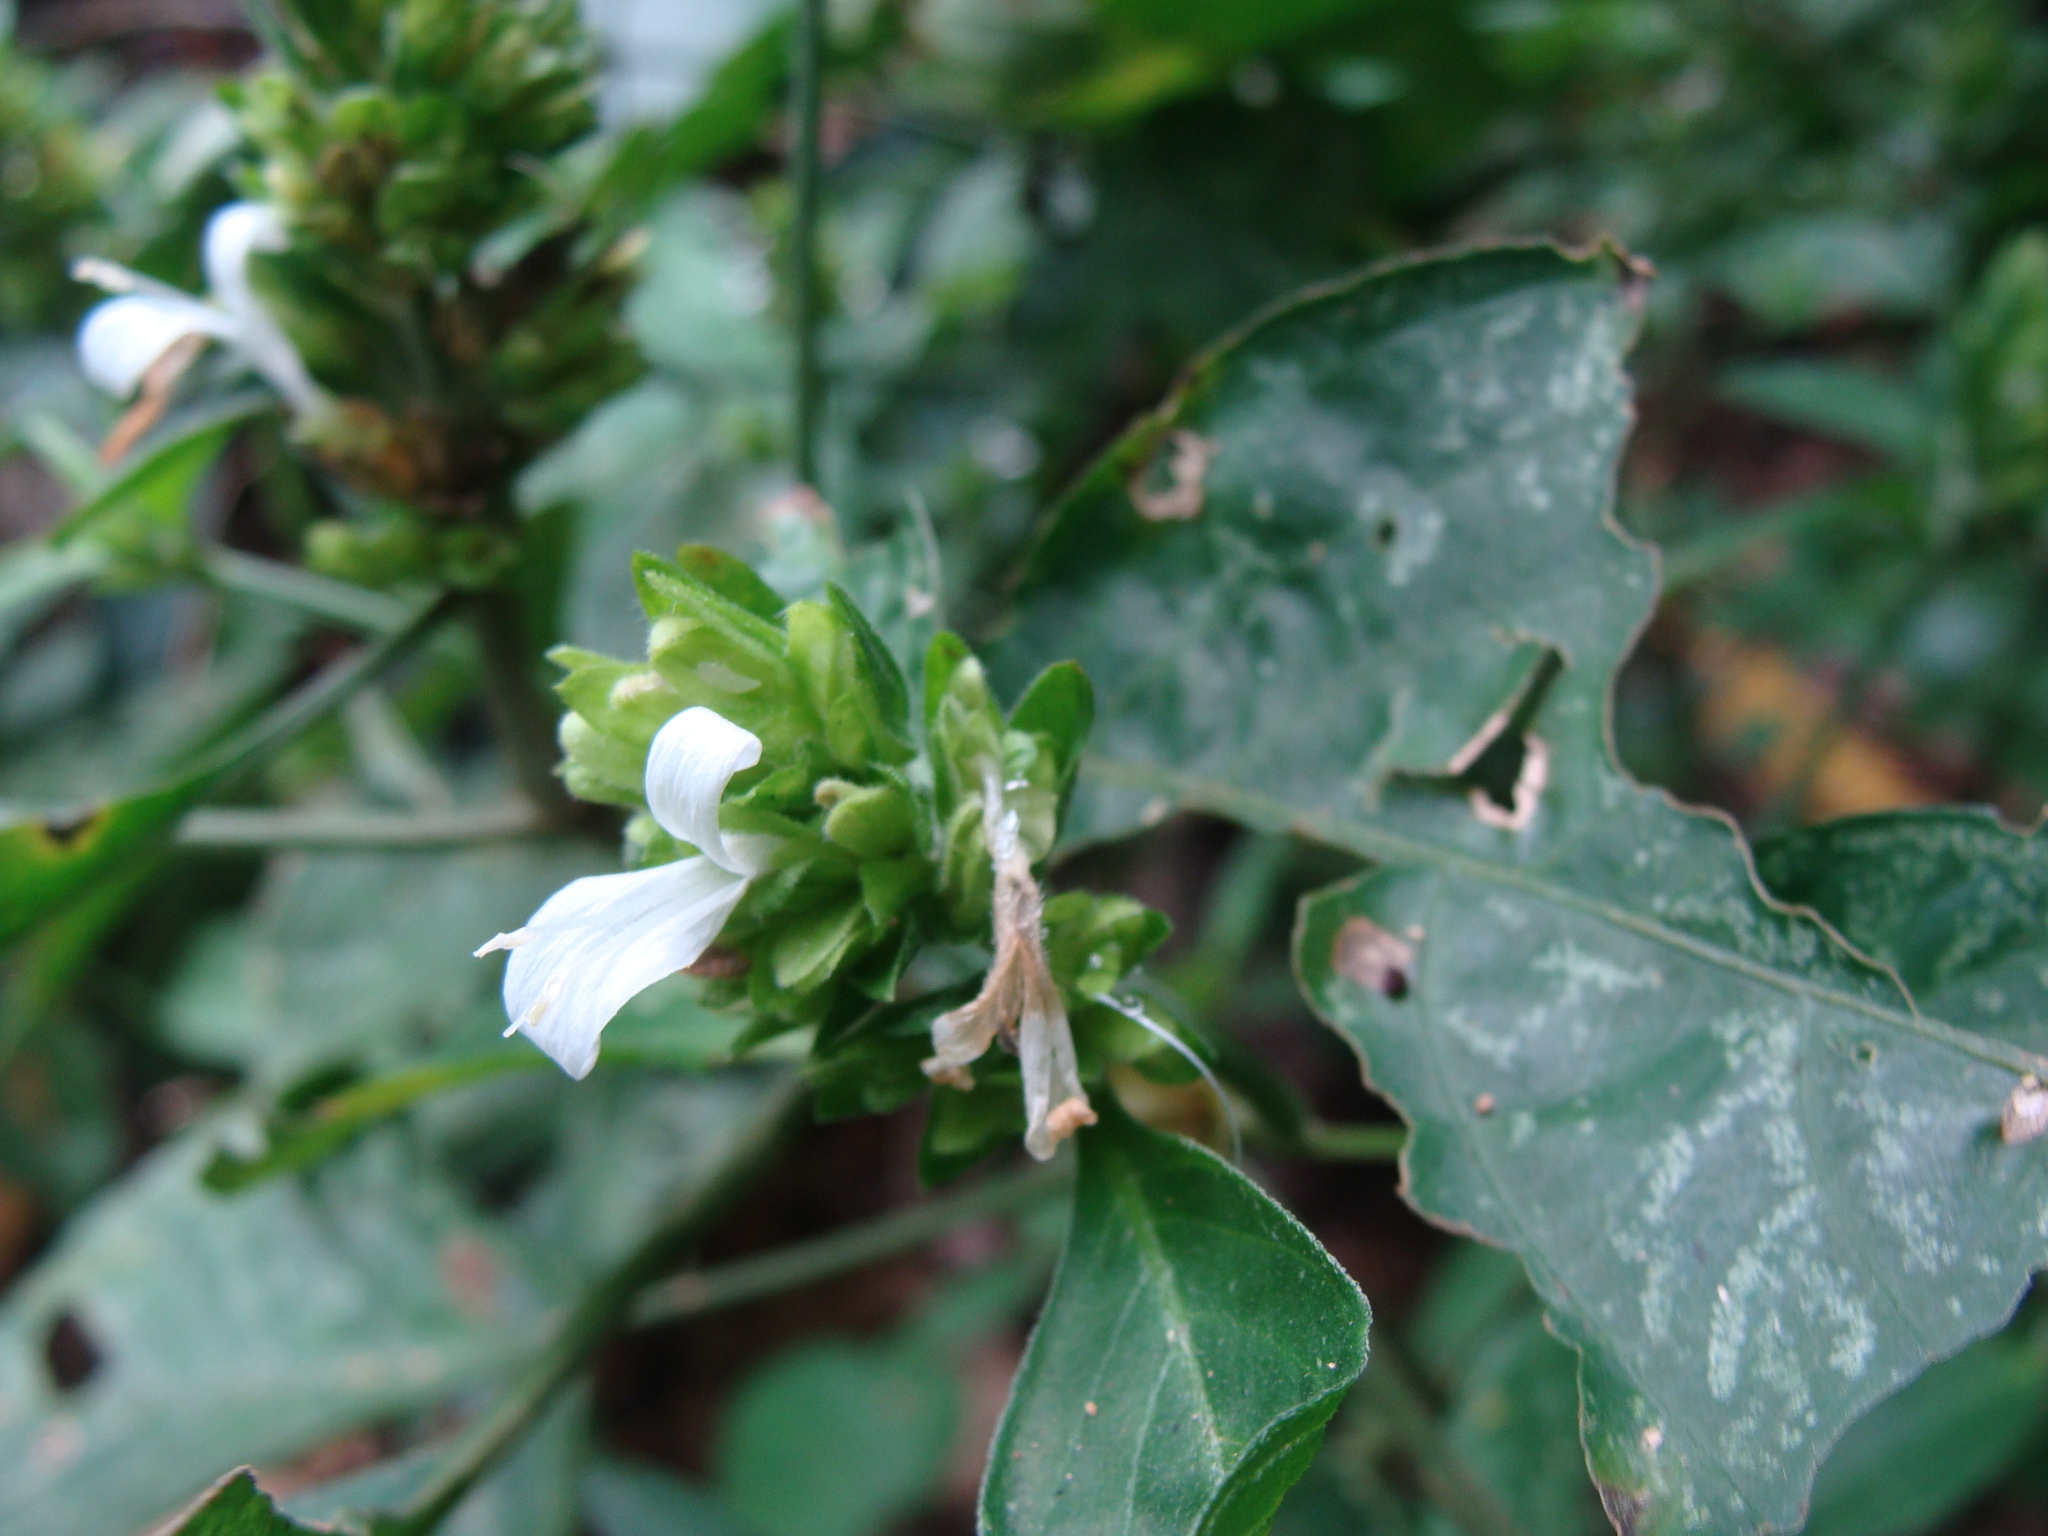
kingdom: Plantae
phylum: Tracheophyta
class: Magnoliopsida
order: Lamiales
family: Acanthaceae
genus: Dicliptera
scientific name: Dicliptera membranacea
